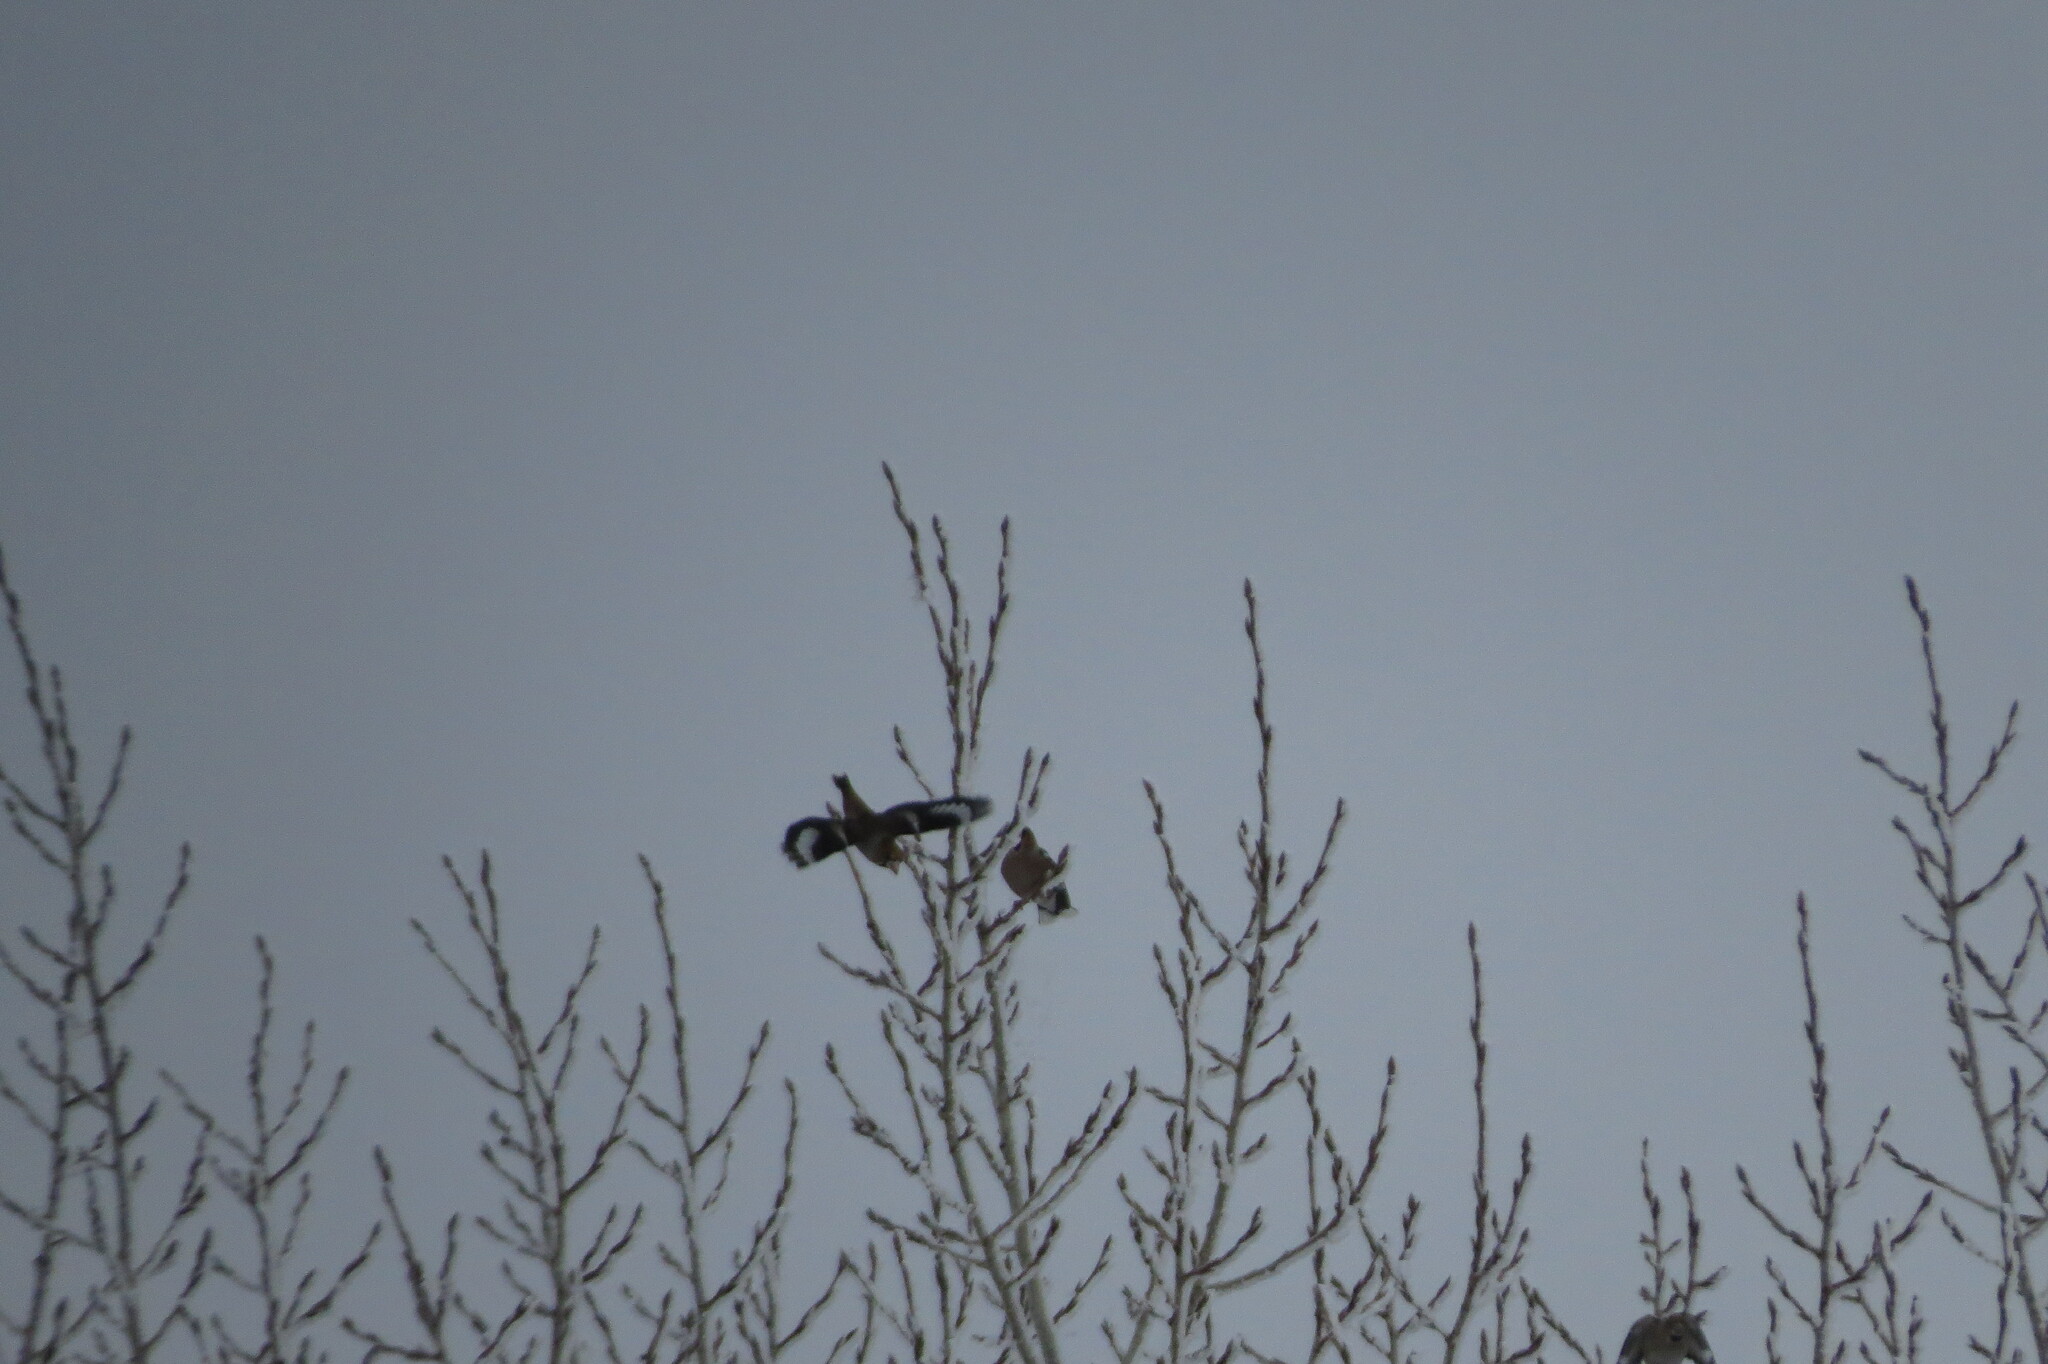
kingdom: Animalia
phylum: Chordata
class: Aves
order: Passeriformes
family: Fringillidae
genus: Coccothraustes
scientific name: Coccothraustes coccothraustes
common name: Hawfinch
